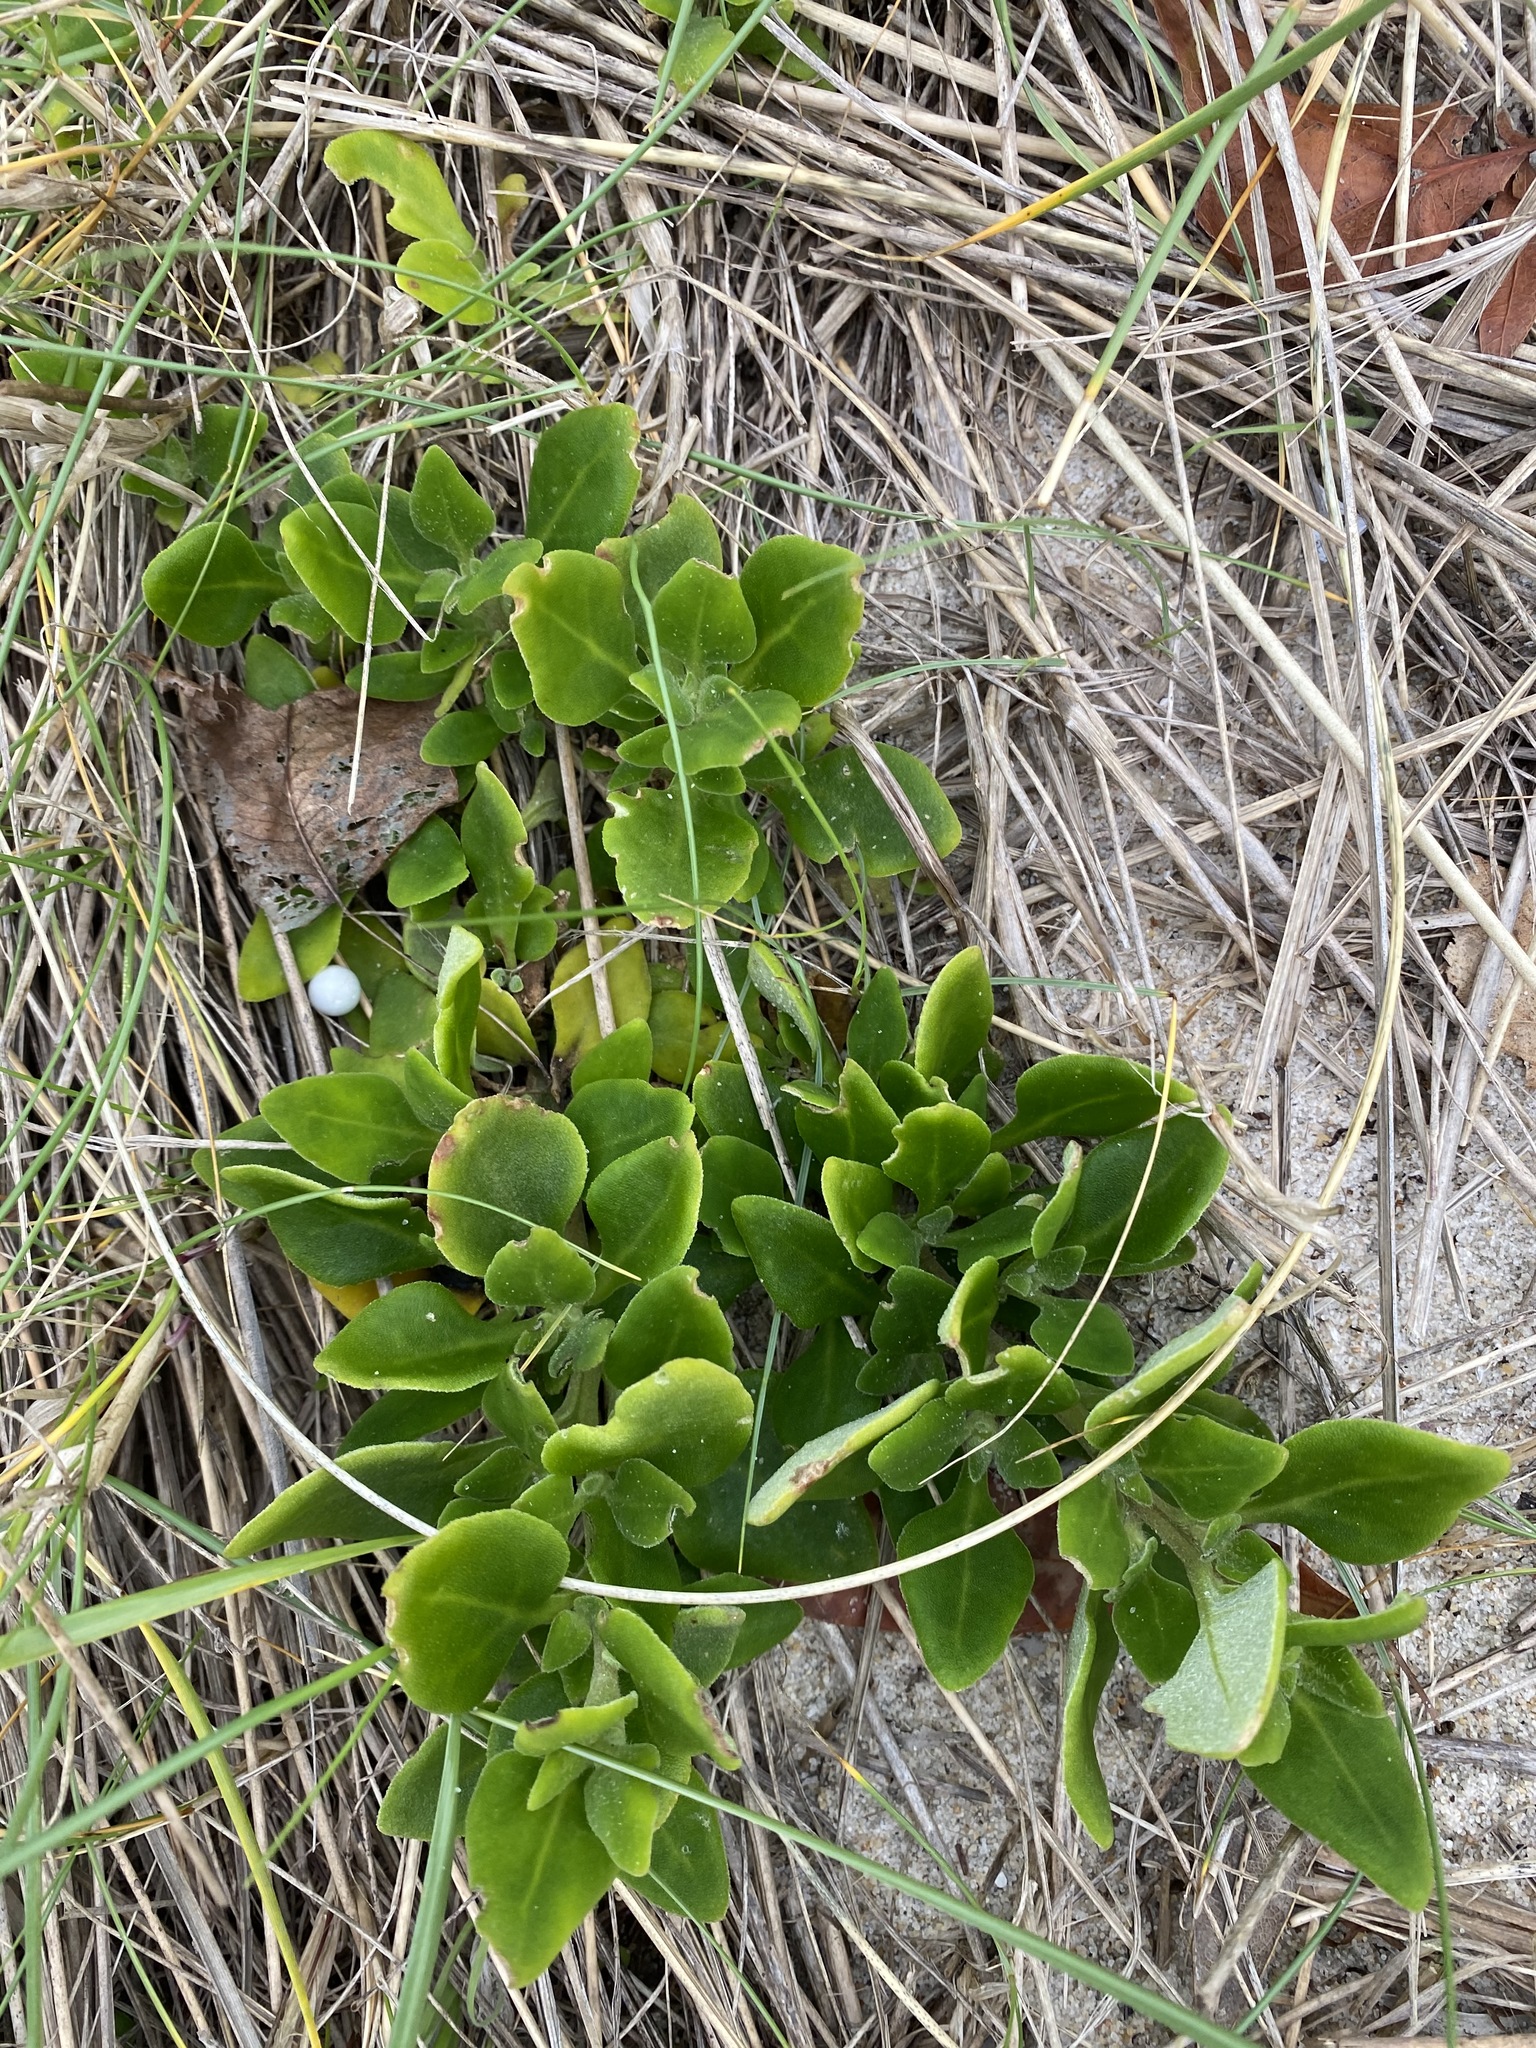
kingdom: Plantae
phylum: Tracheophyta
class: Magnoliopsida
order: Caryophyllales
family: Aizoaceae
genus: Tetragonia
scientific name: Tetragonia implexicoma
